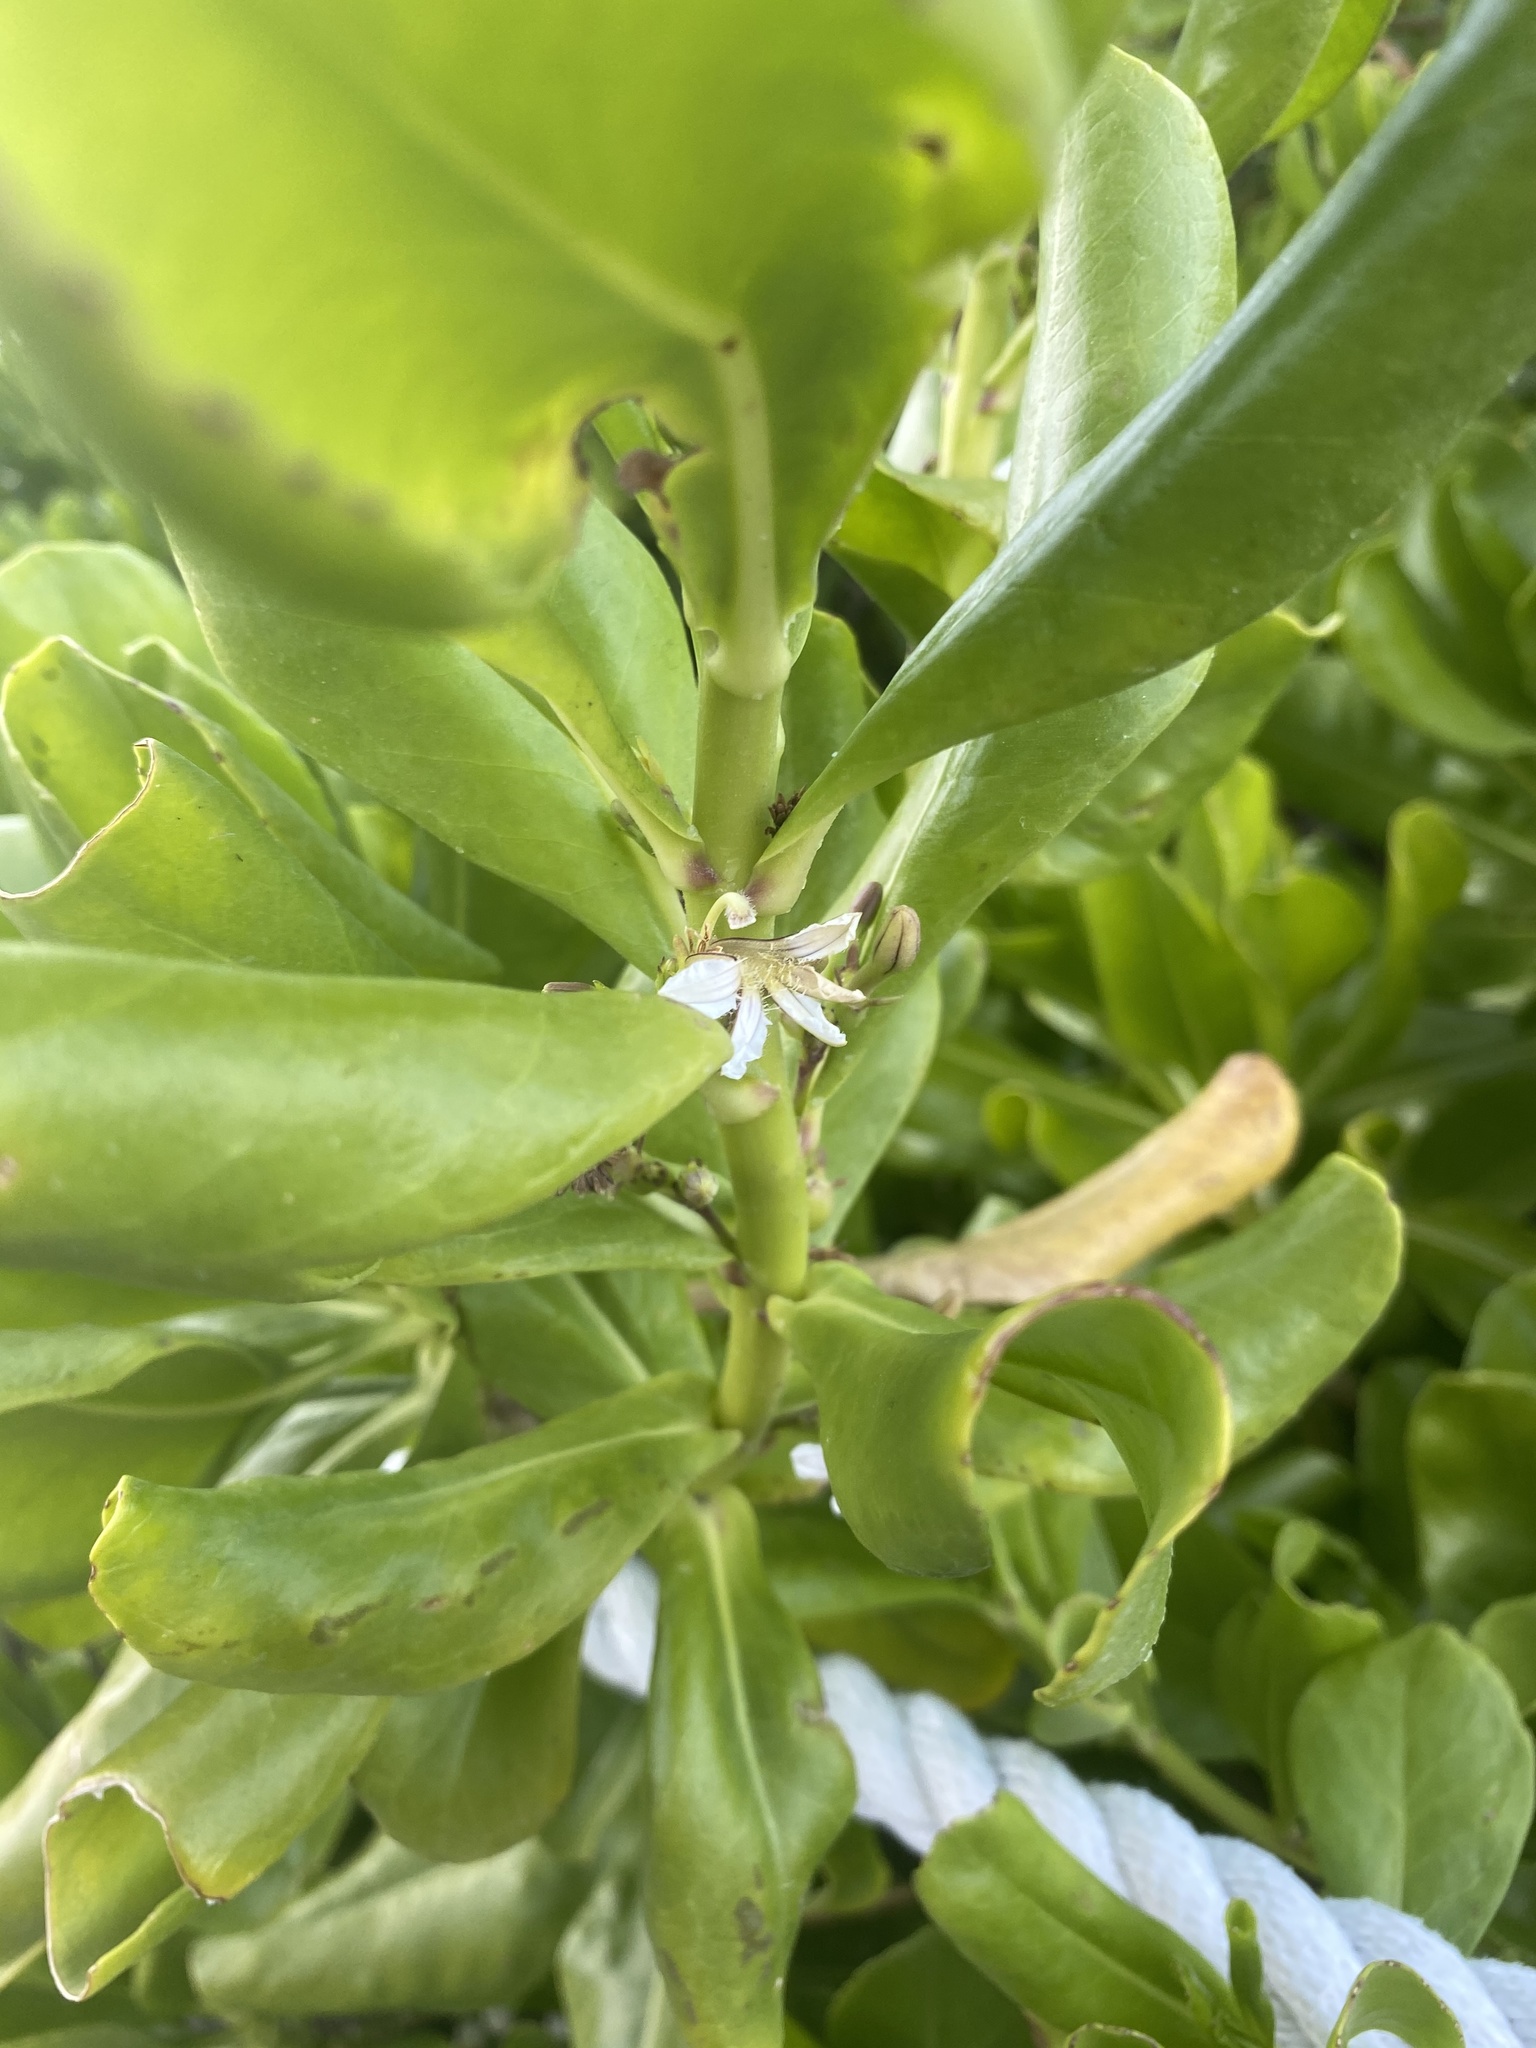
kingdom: Plantae
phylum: Tracheophyta
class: Magnoliopsida
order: Asterales
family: Goodeniaceae
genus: Scaevola
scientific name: Scaevola taccada
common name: Sea lettucetree
